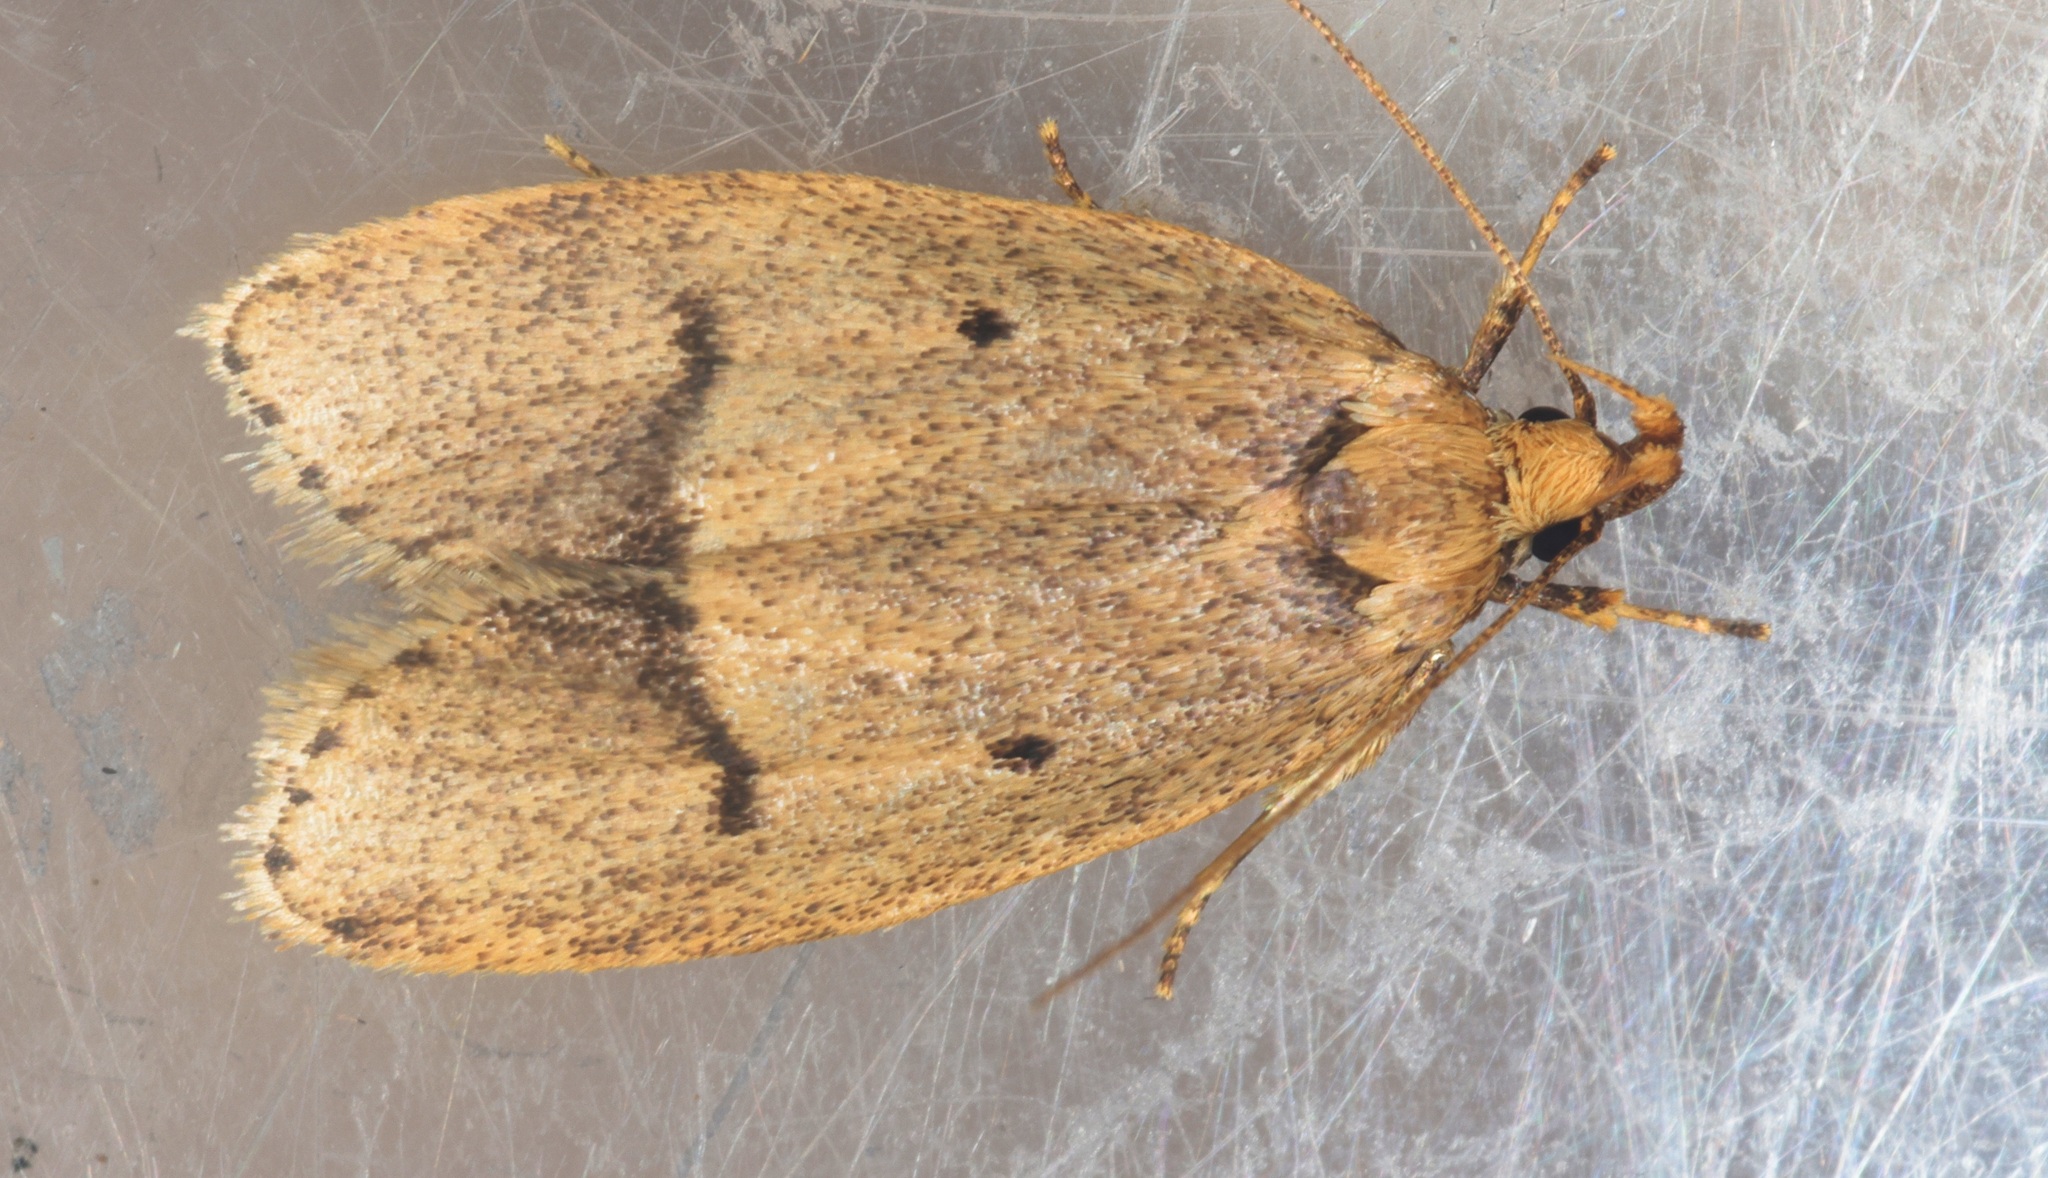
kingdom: Animalia
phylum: Arthropoda
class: Insecta
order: Lepidoptera
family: Autostichidae
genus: Phaulolechia
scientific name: Phaulolechia
